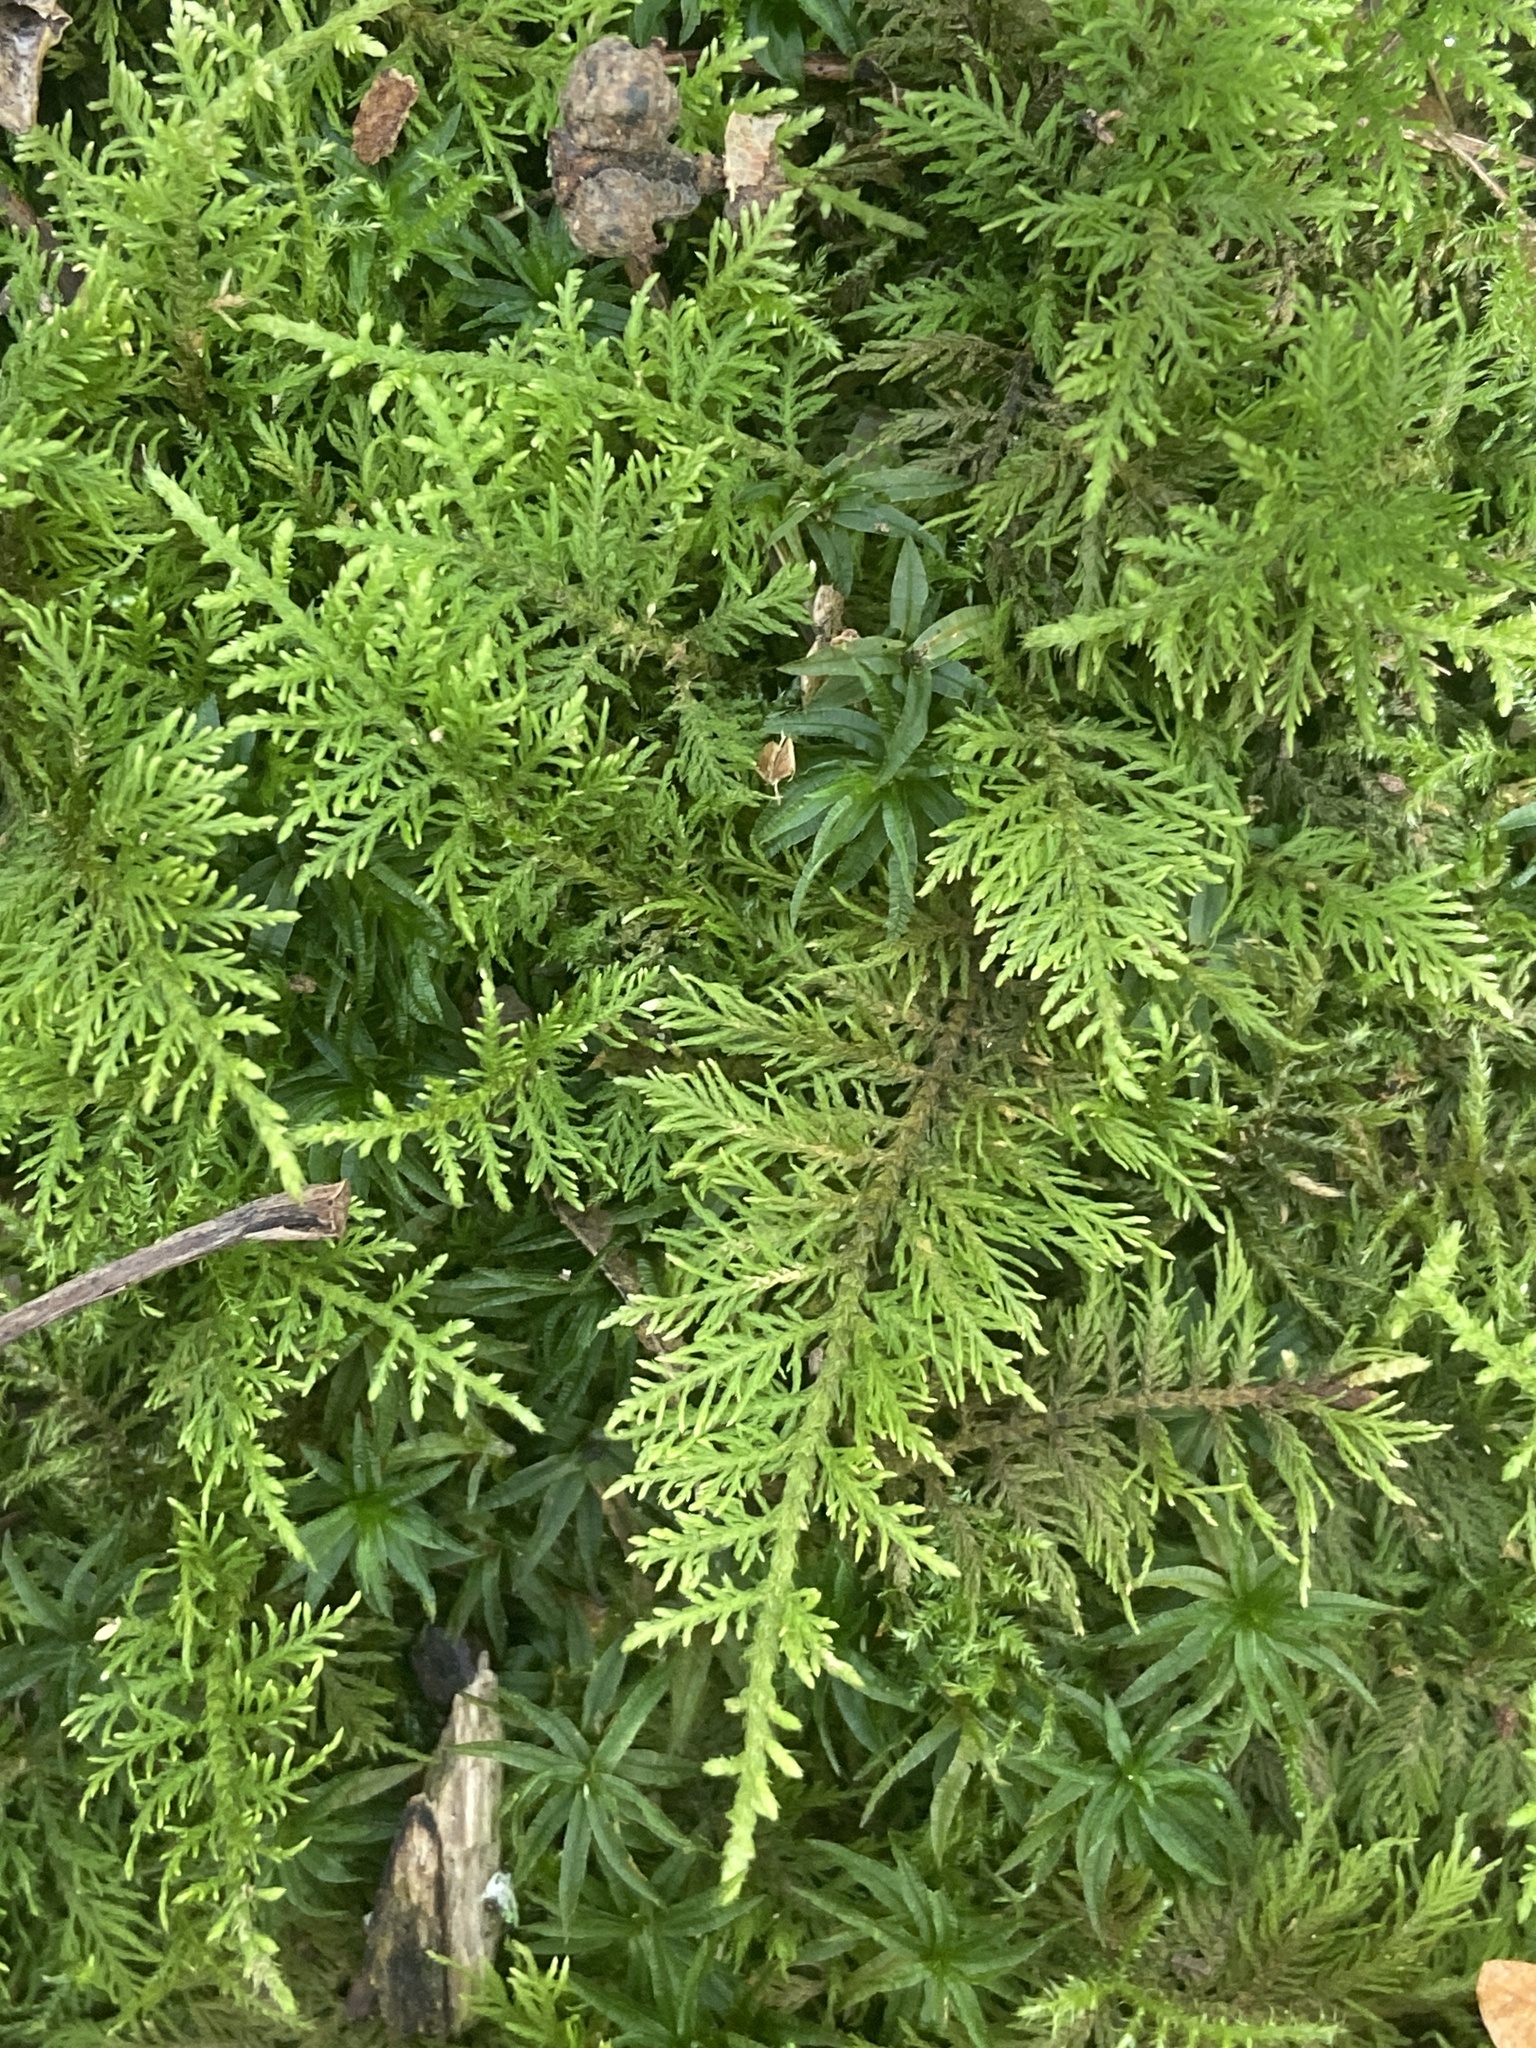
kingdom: Plantae
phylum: Bryophyta
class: Bryopsida
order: Hypnales
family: Thuidiaceae
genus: Thuidium
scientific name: Thuidium tamariscinum
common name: Common tamarisk-moss
